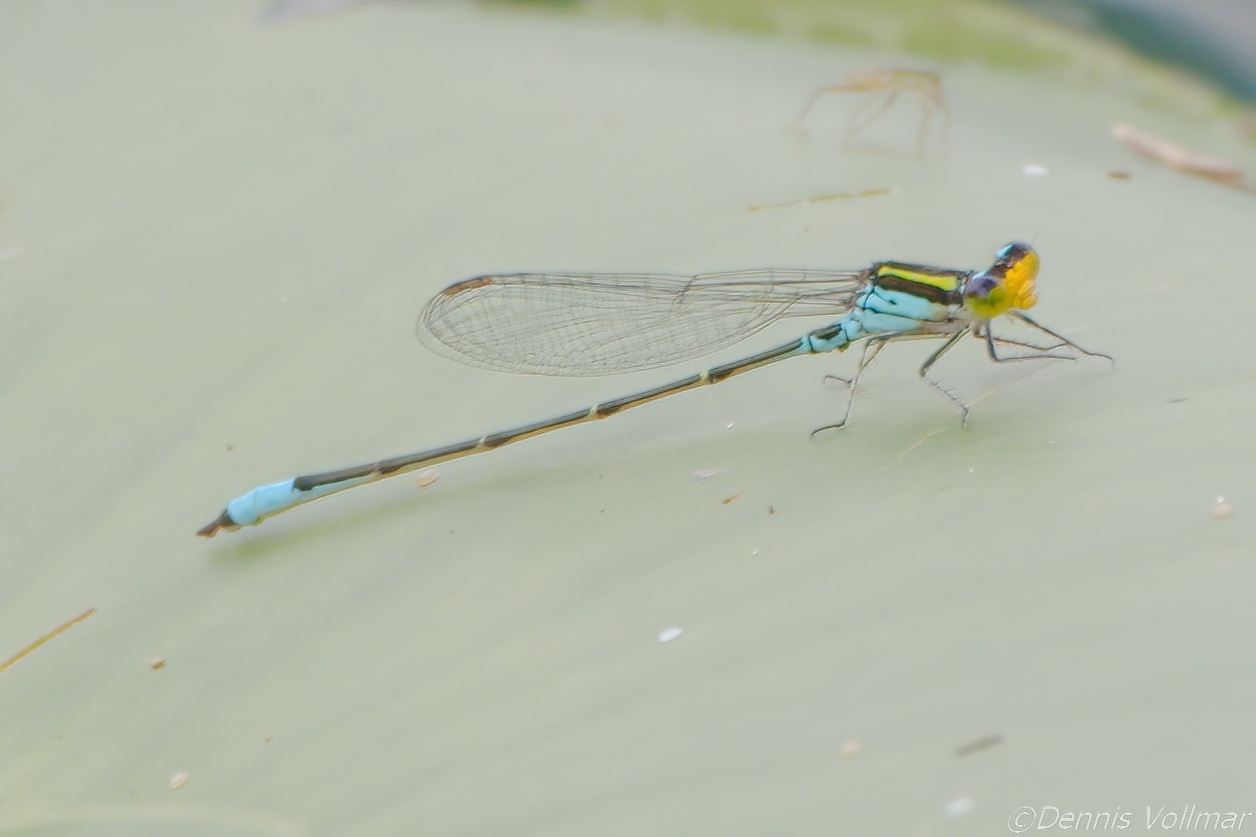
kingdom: Animalia
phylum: Arthropoda
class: Insecta
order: Odonata
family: Coenagrionidae
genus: Neoerythromma
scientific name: Neoerythromma cultellatum
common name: Caribbean yellowface
